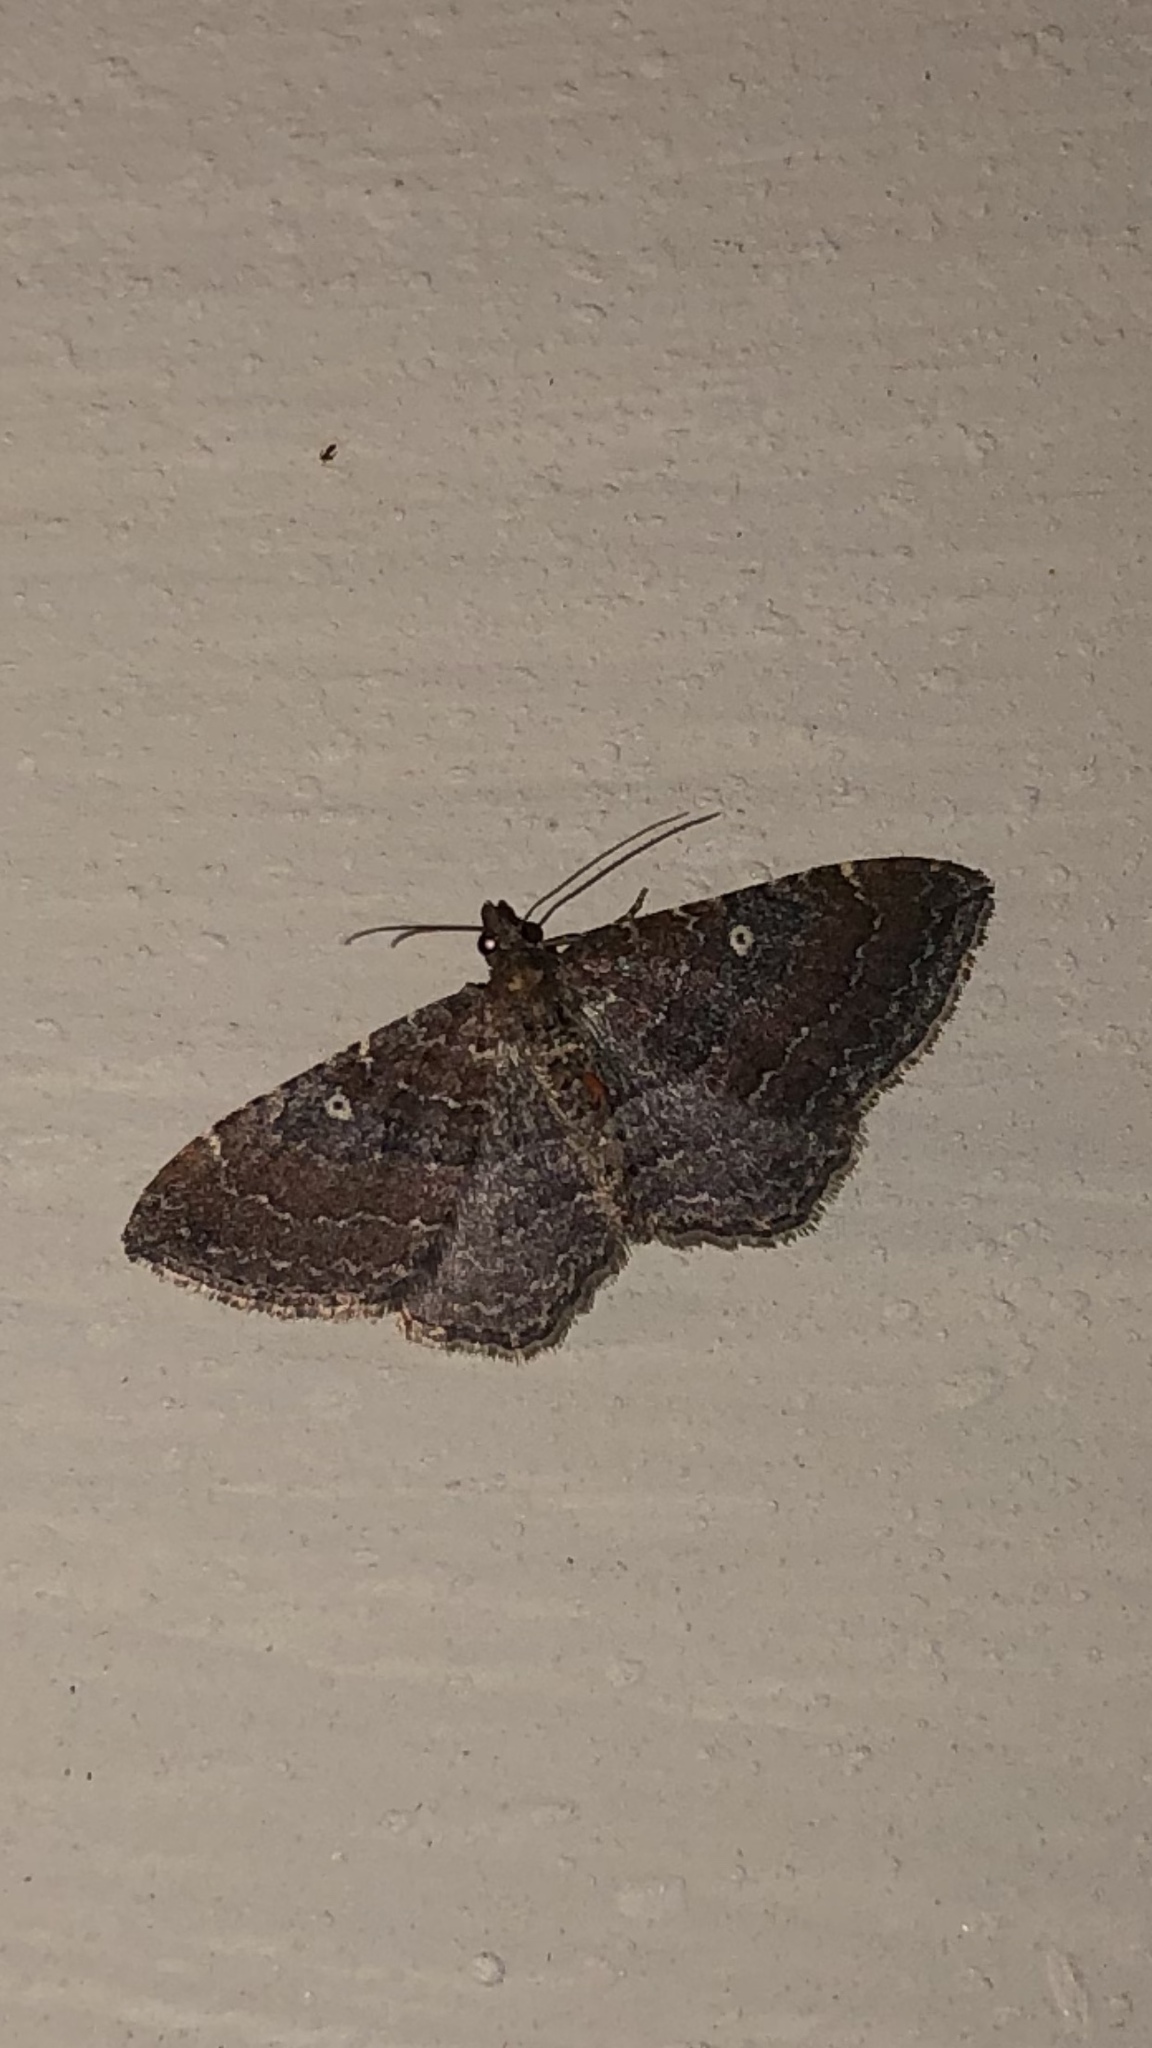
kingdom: Animalia
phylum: Arthropoda
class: Insecta
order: Lepidoptera
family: Geometridae
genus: Orthonama
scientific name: Orthonama obstipata
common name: The gem
